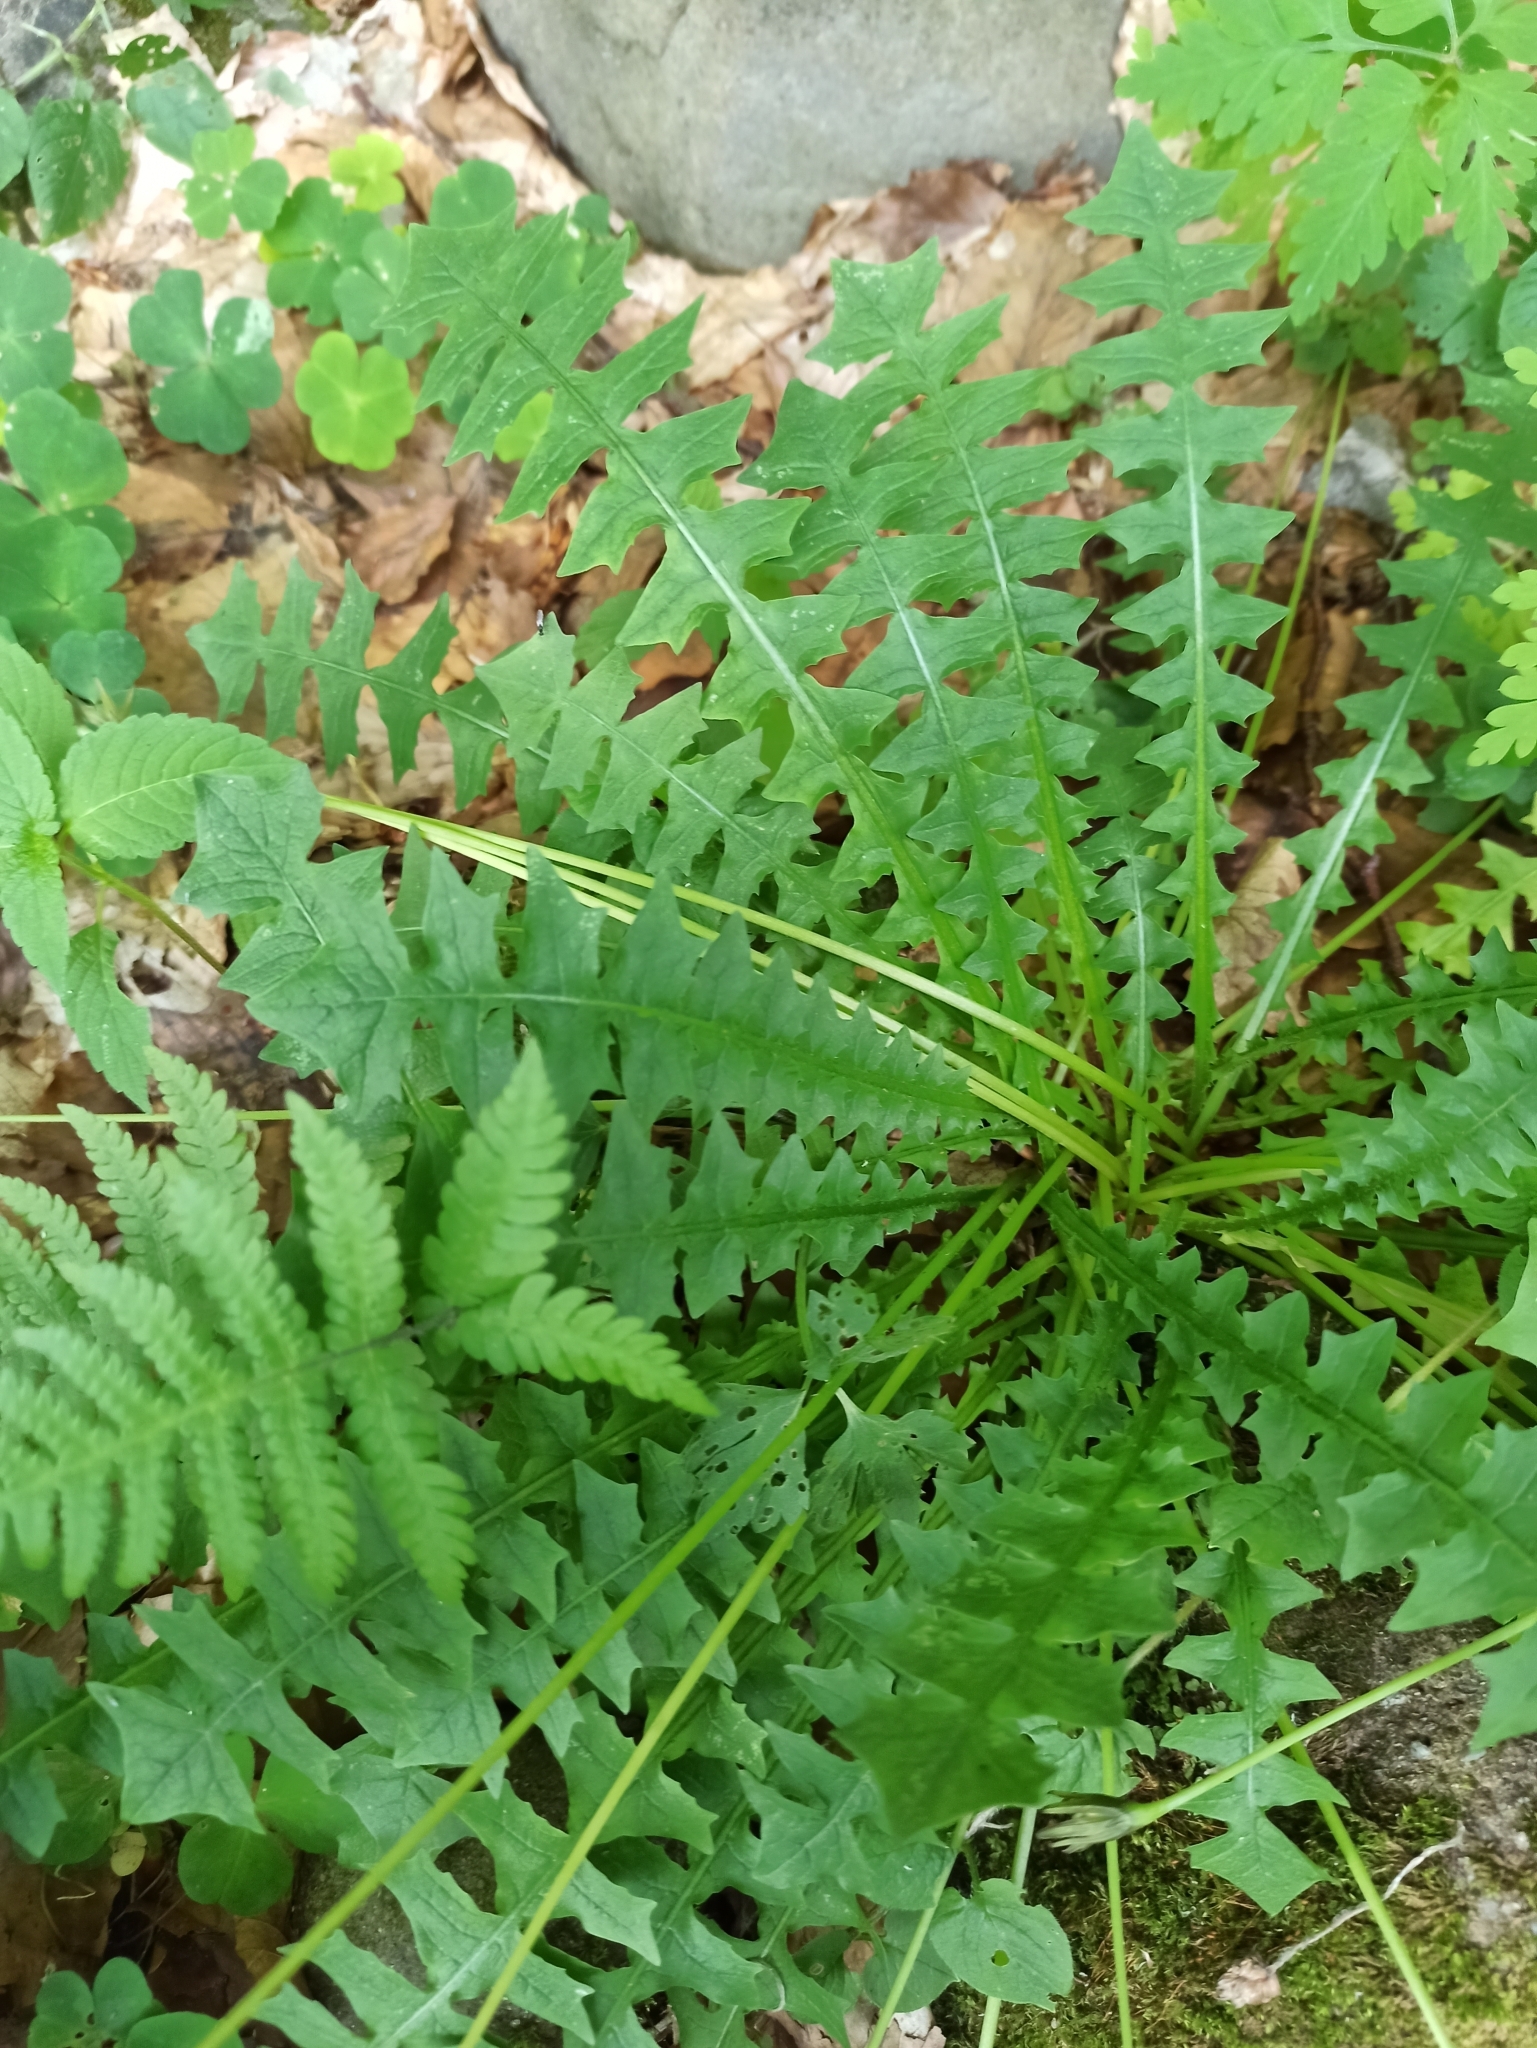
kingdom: Plantae
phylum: Tracheophyta
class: Magnoliopsida
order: Asterales
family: Asteraceae
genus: Aposeris
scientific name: Aposeris foetida
